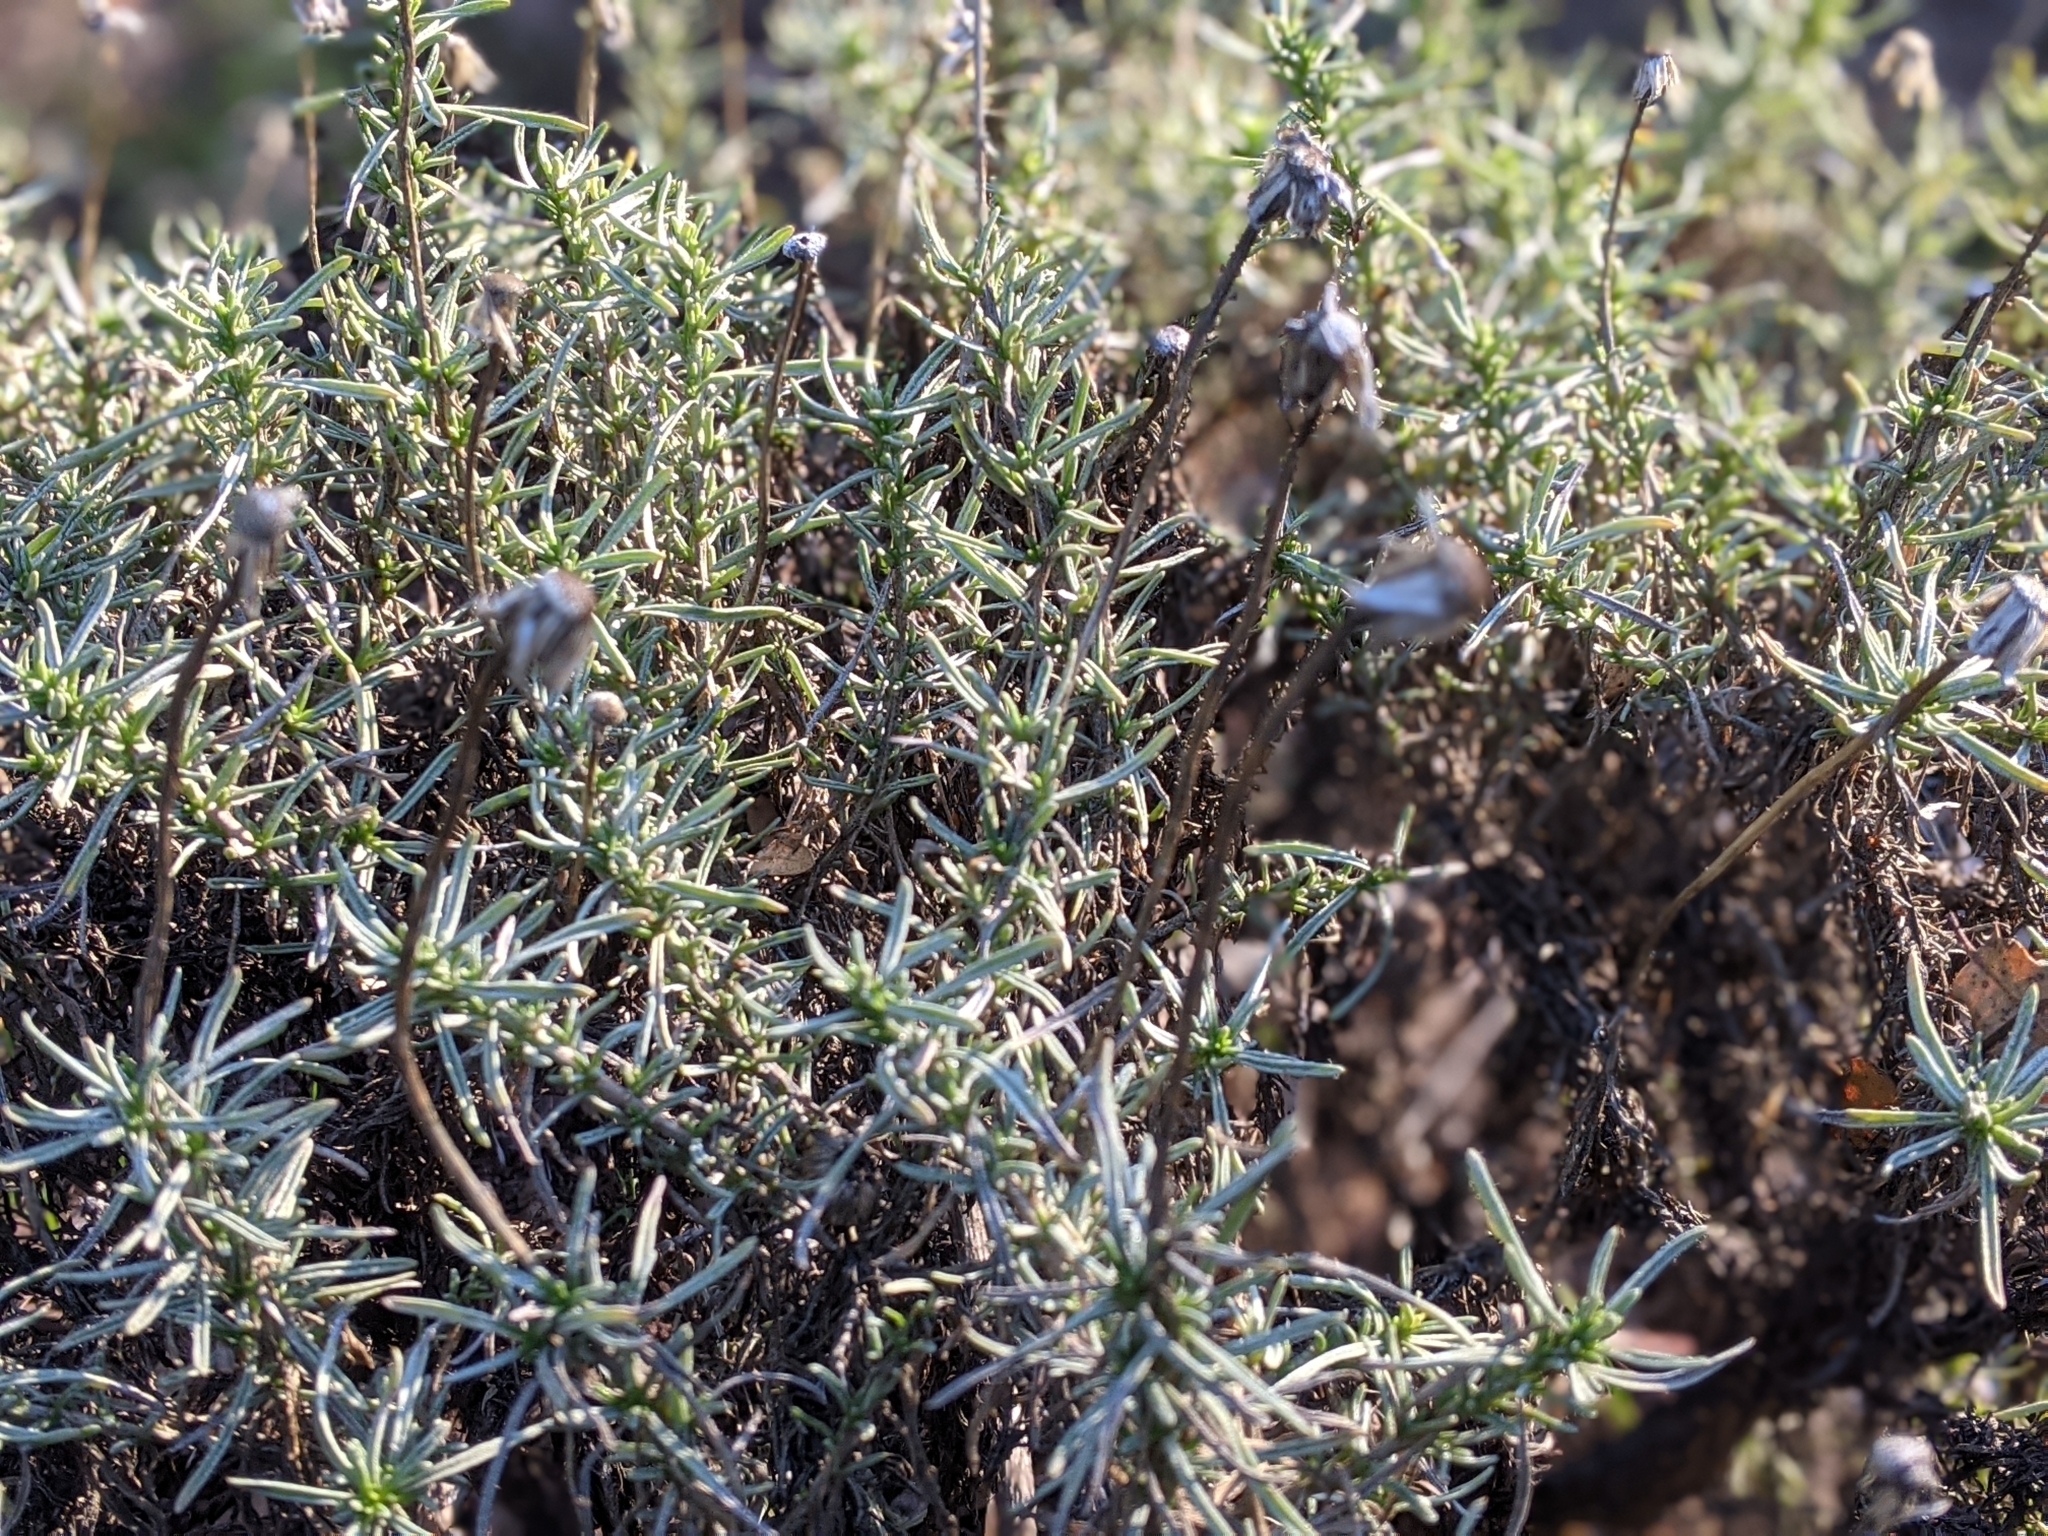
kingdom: Plantae
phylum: Tracheophyta
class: Magnoliopsida
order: Asterales
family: Asteraceae
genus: Ericameria
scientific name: Ericameria linearifolia
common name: Interior goldenbush
